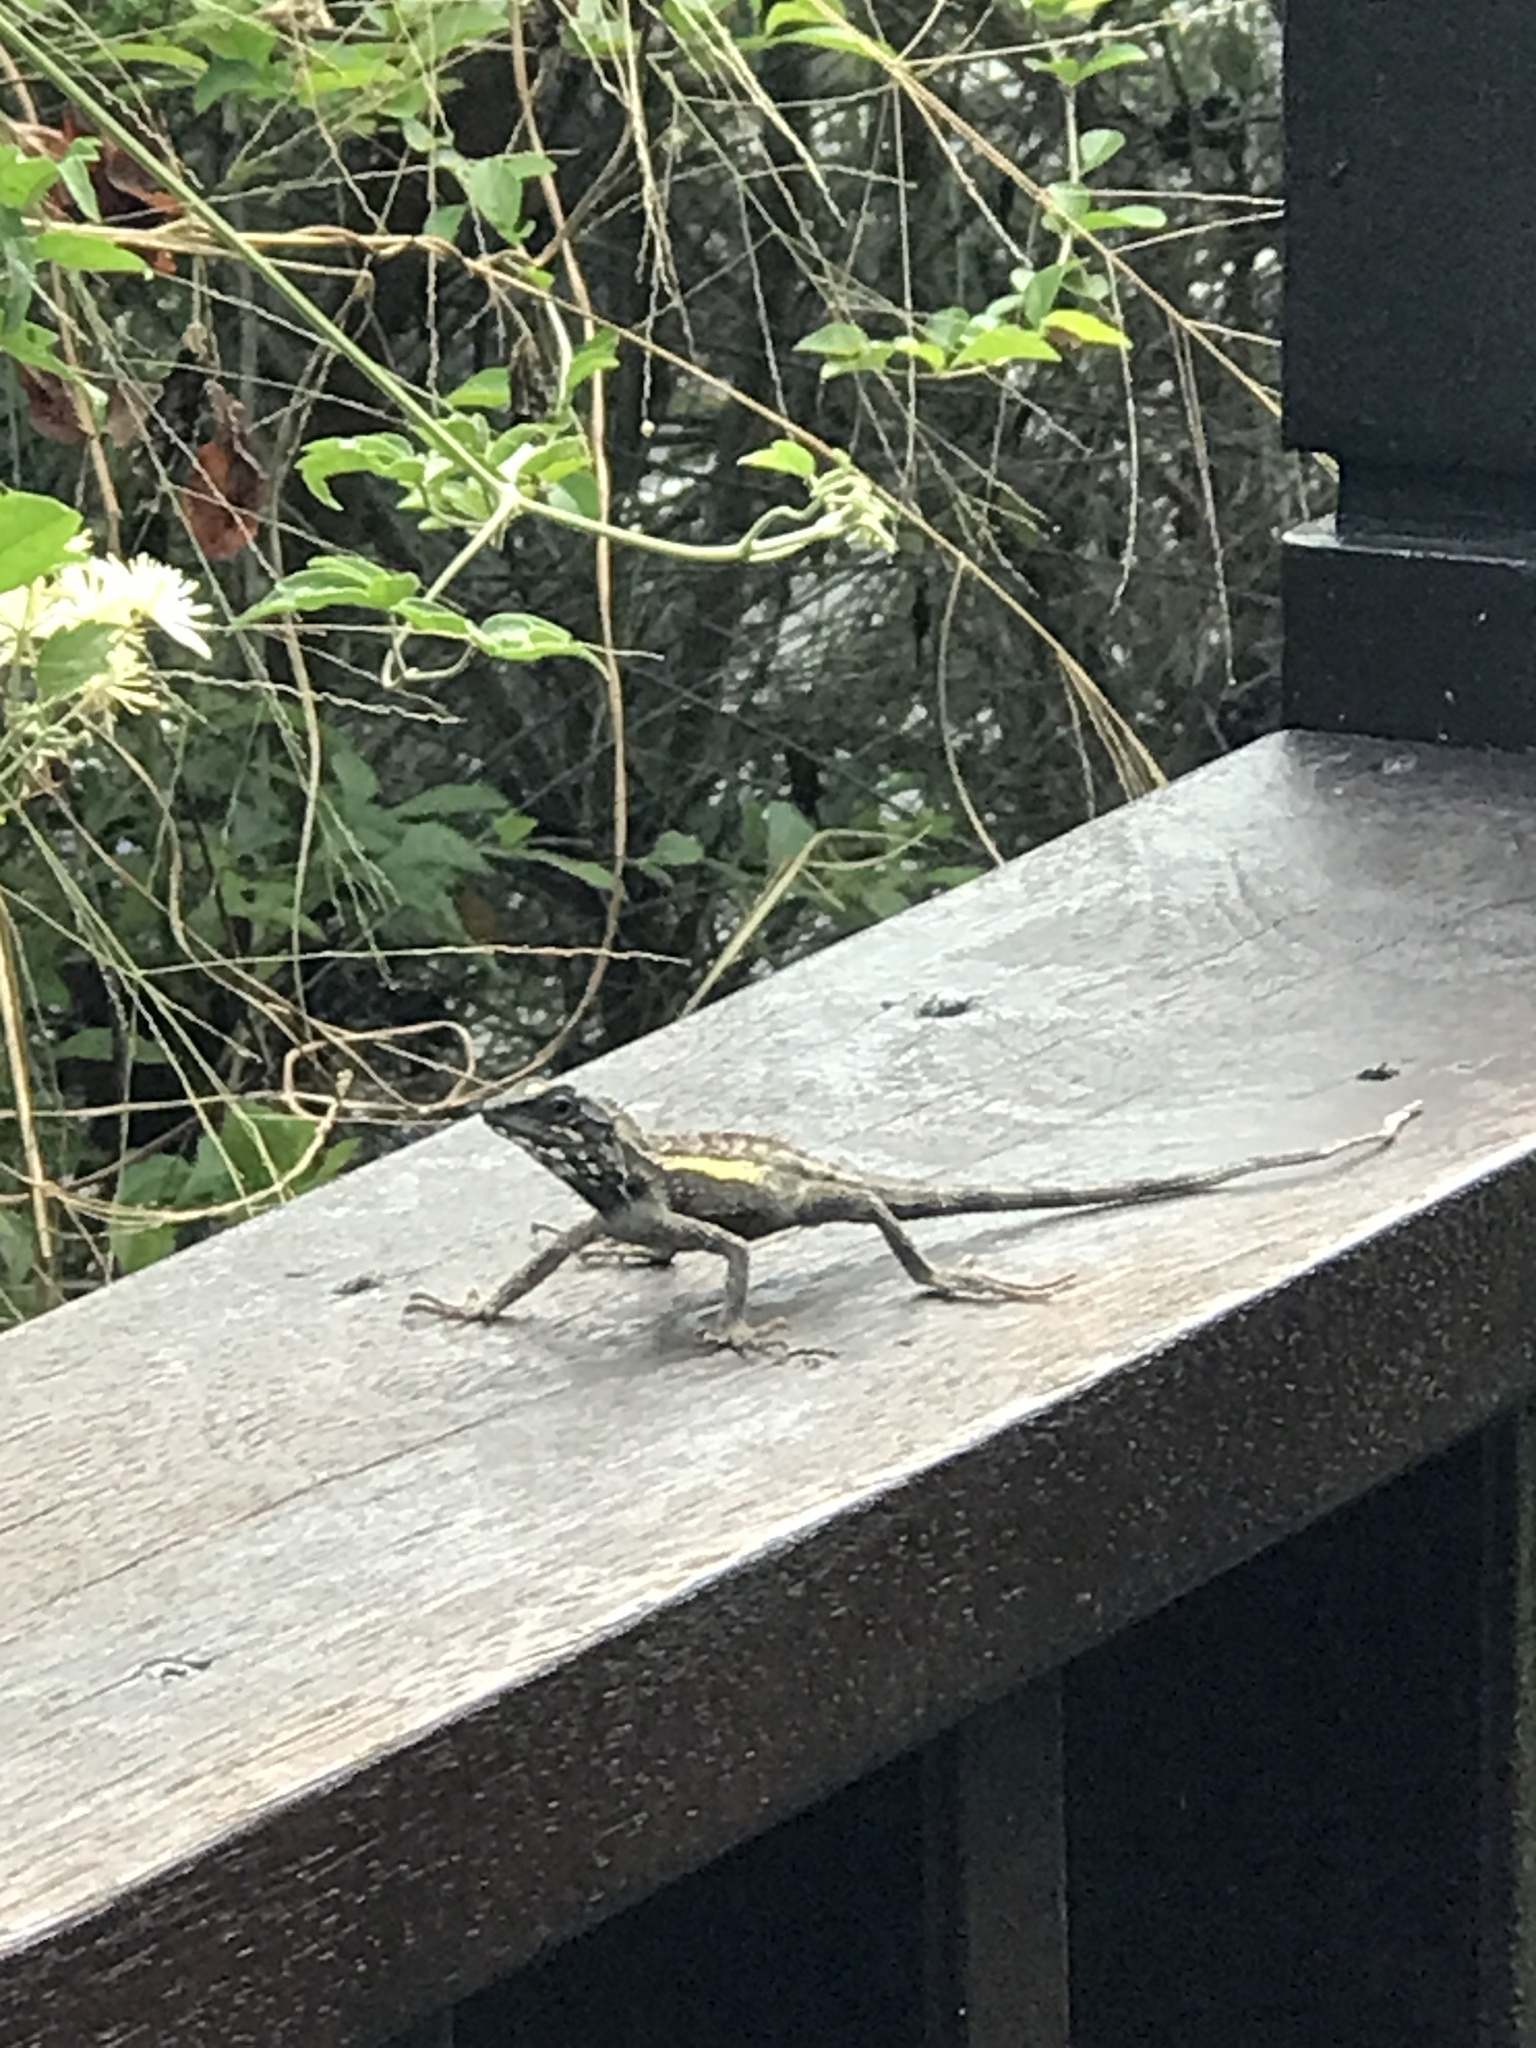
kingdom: Animalia
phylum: Chordata
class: Squamata
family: Agamidae
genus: Diploderma
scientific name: Diploderma swinhonis
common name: Taiwan japalure
